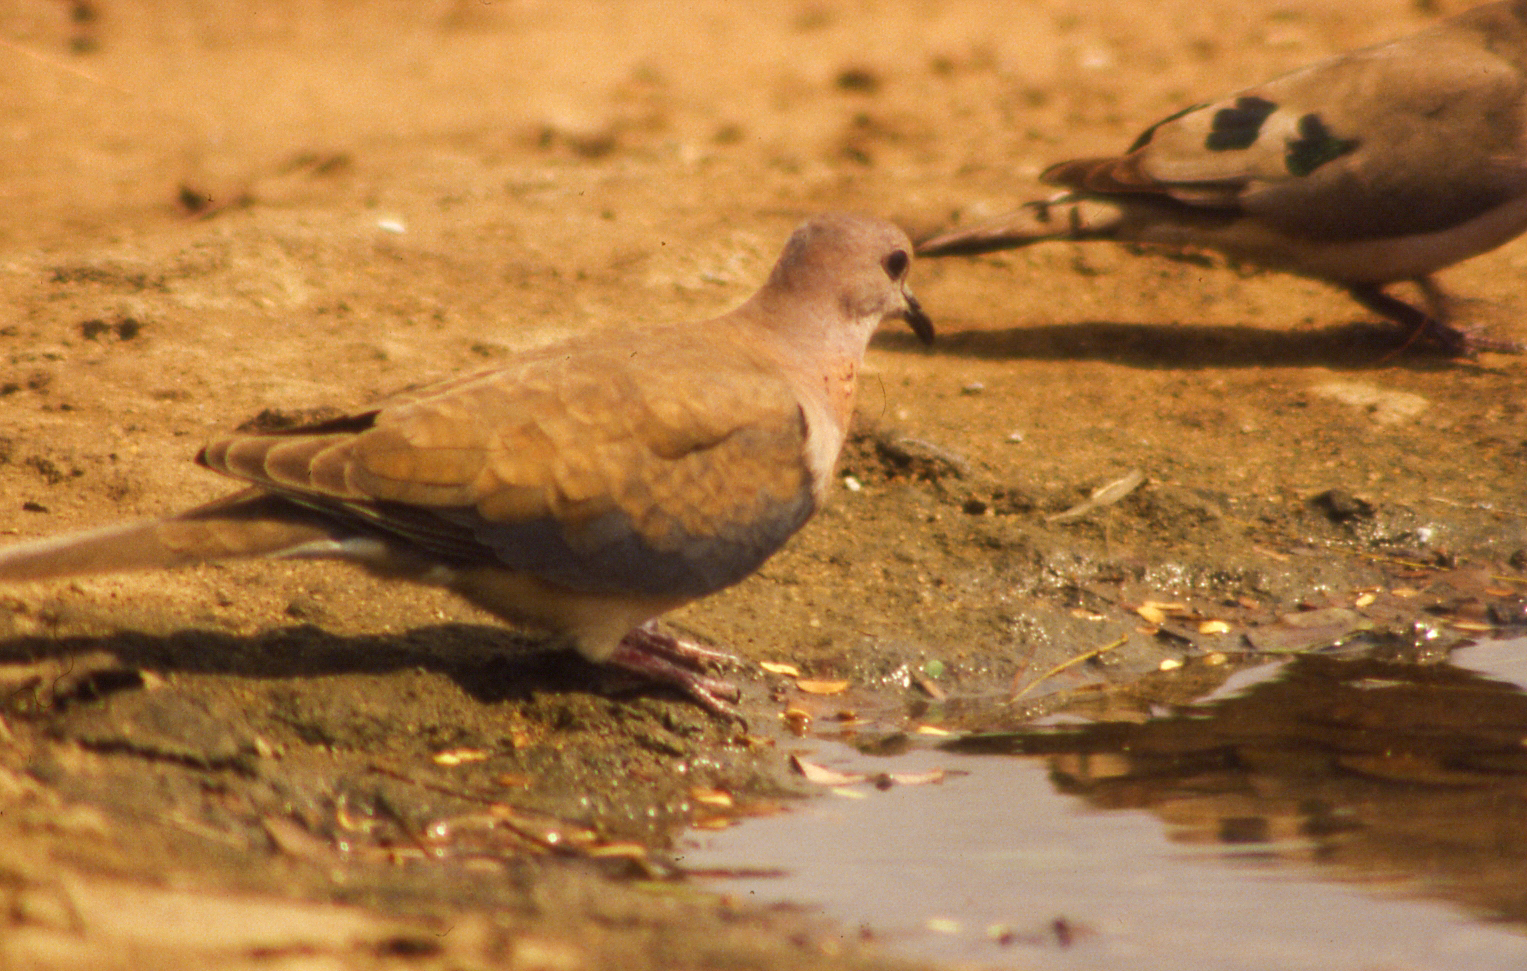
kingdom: Animalia
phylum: Chordata
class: Aves
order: Columbiformes
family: Columbidae
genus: Spilopelia
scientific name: Spilopelia senegalensis
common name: Laughing dove
